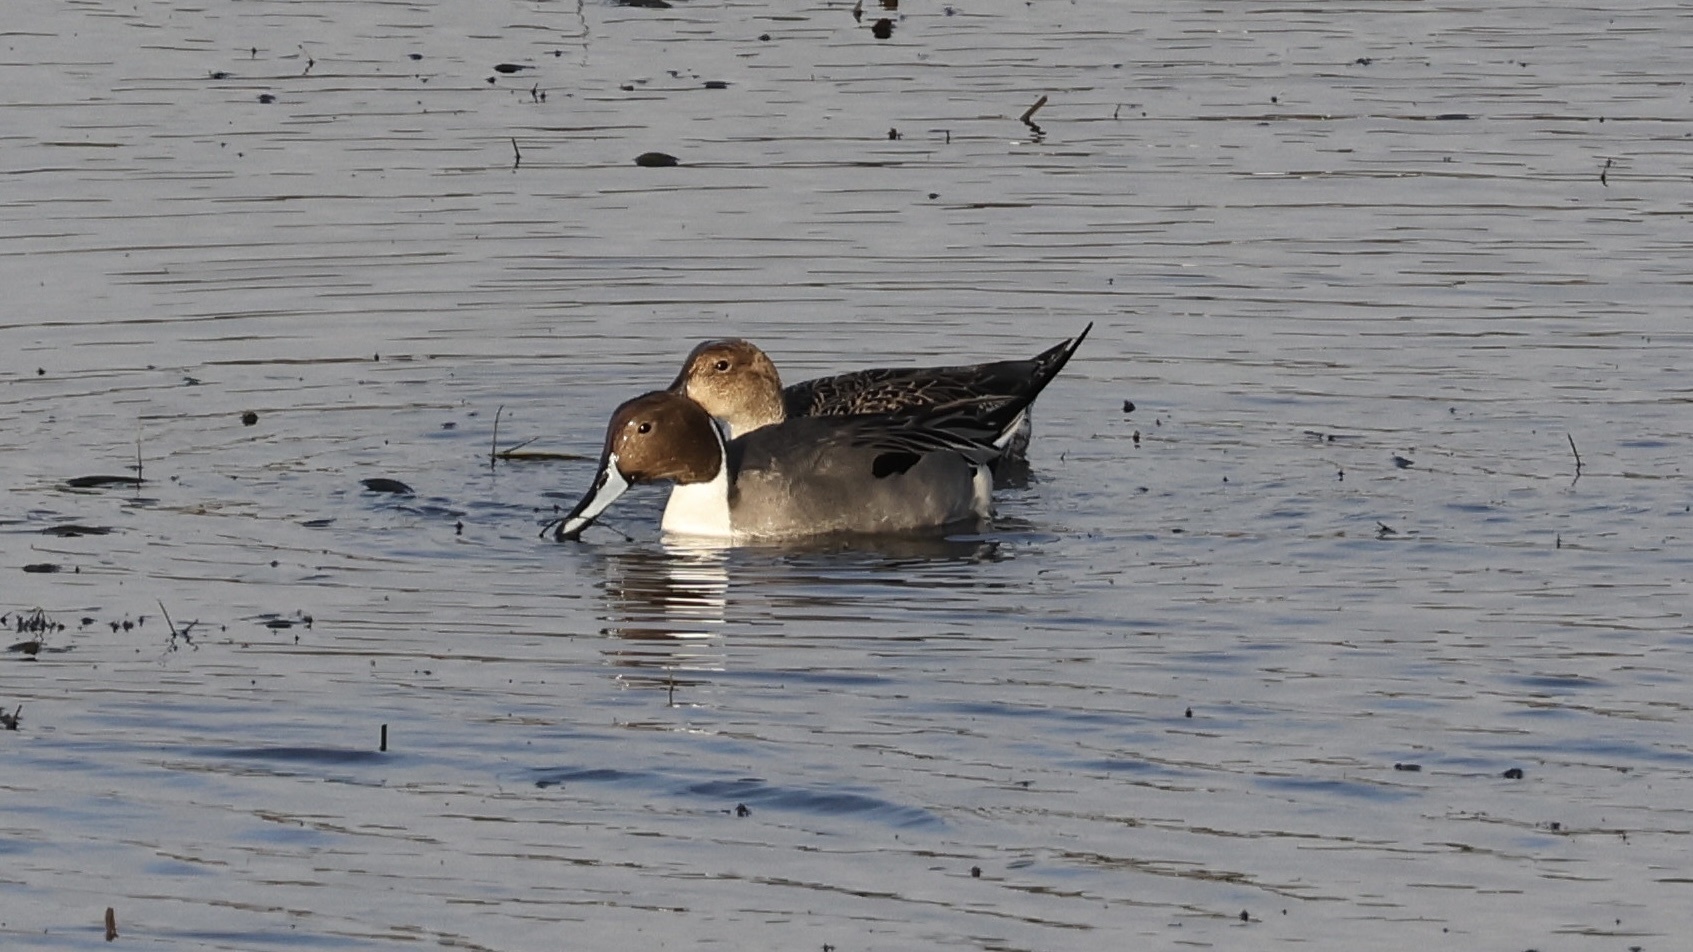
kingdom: Animalia
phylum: Chordata
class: Aves
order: Anseriformes
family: Anatidae
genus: Anas
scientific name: Anas acuta
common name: Northern pintail
